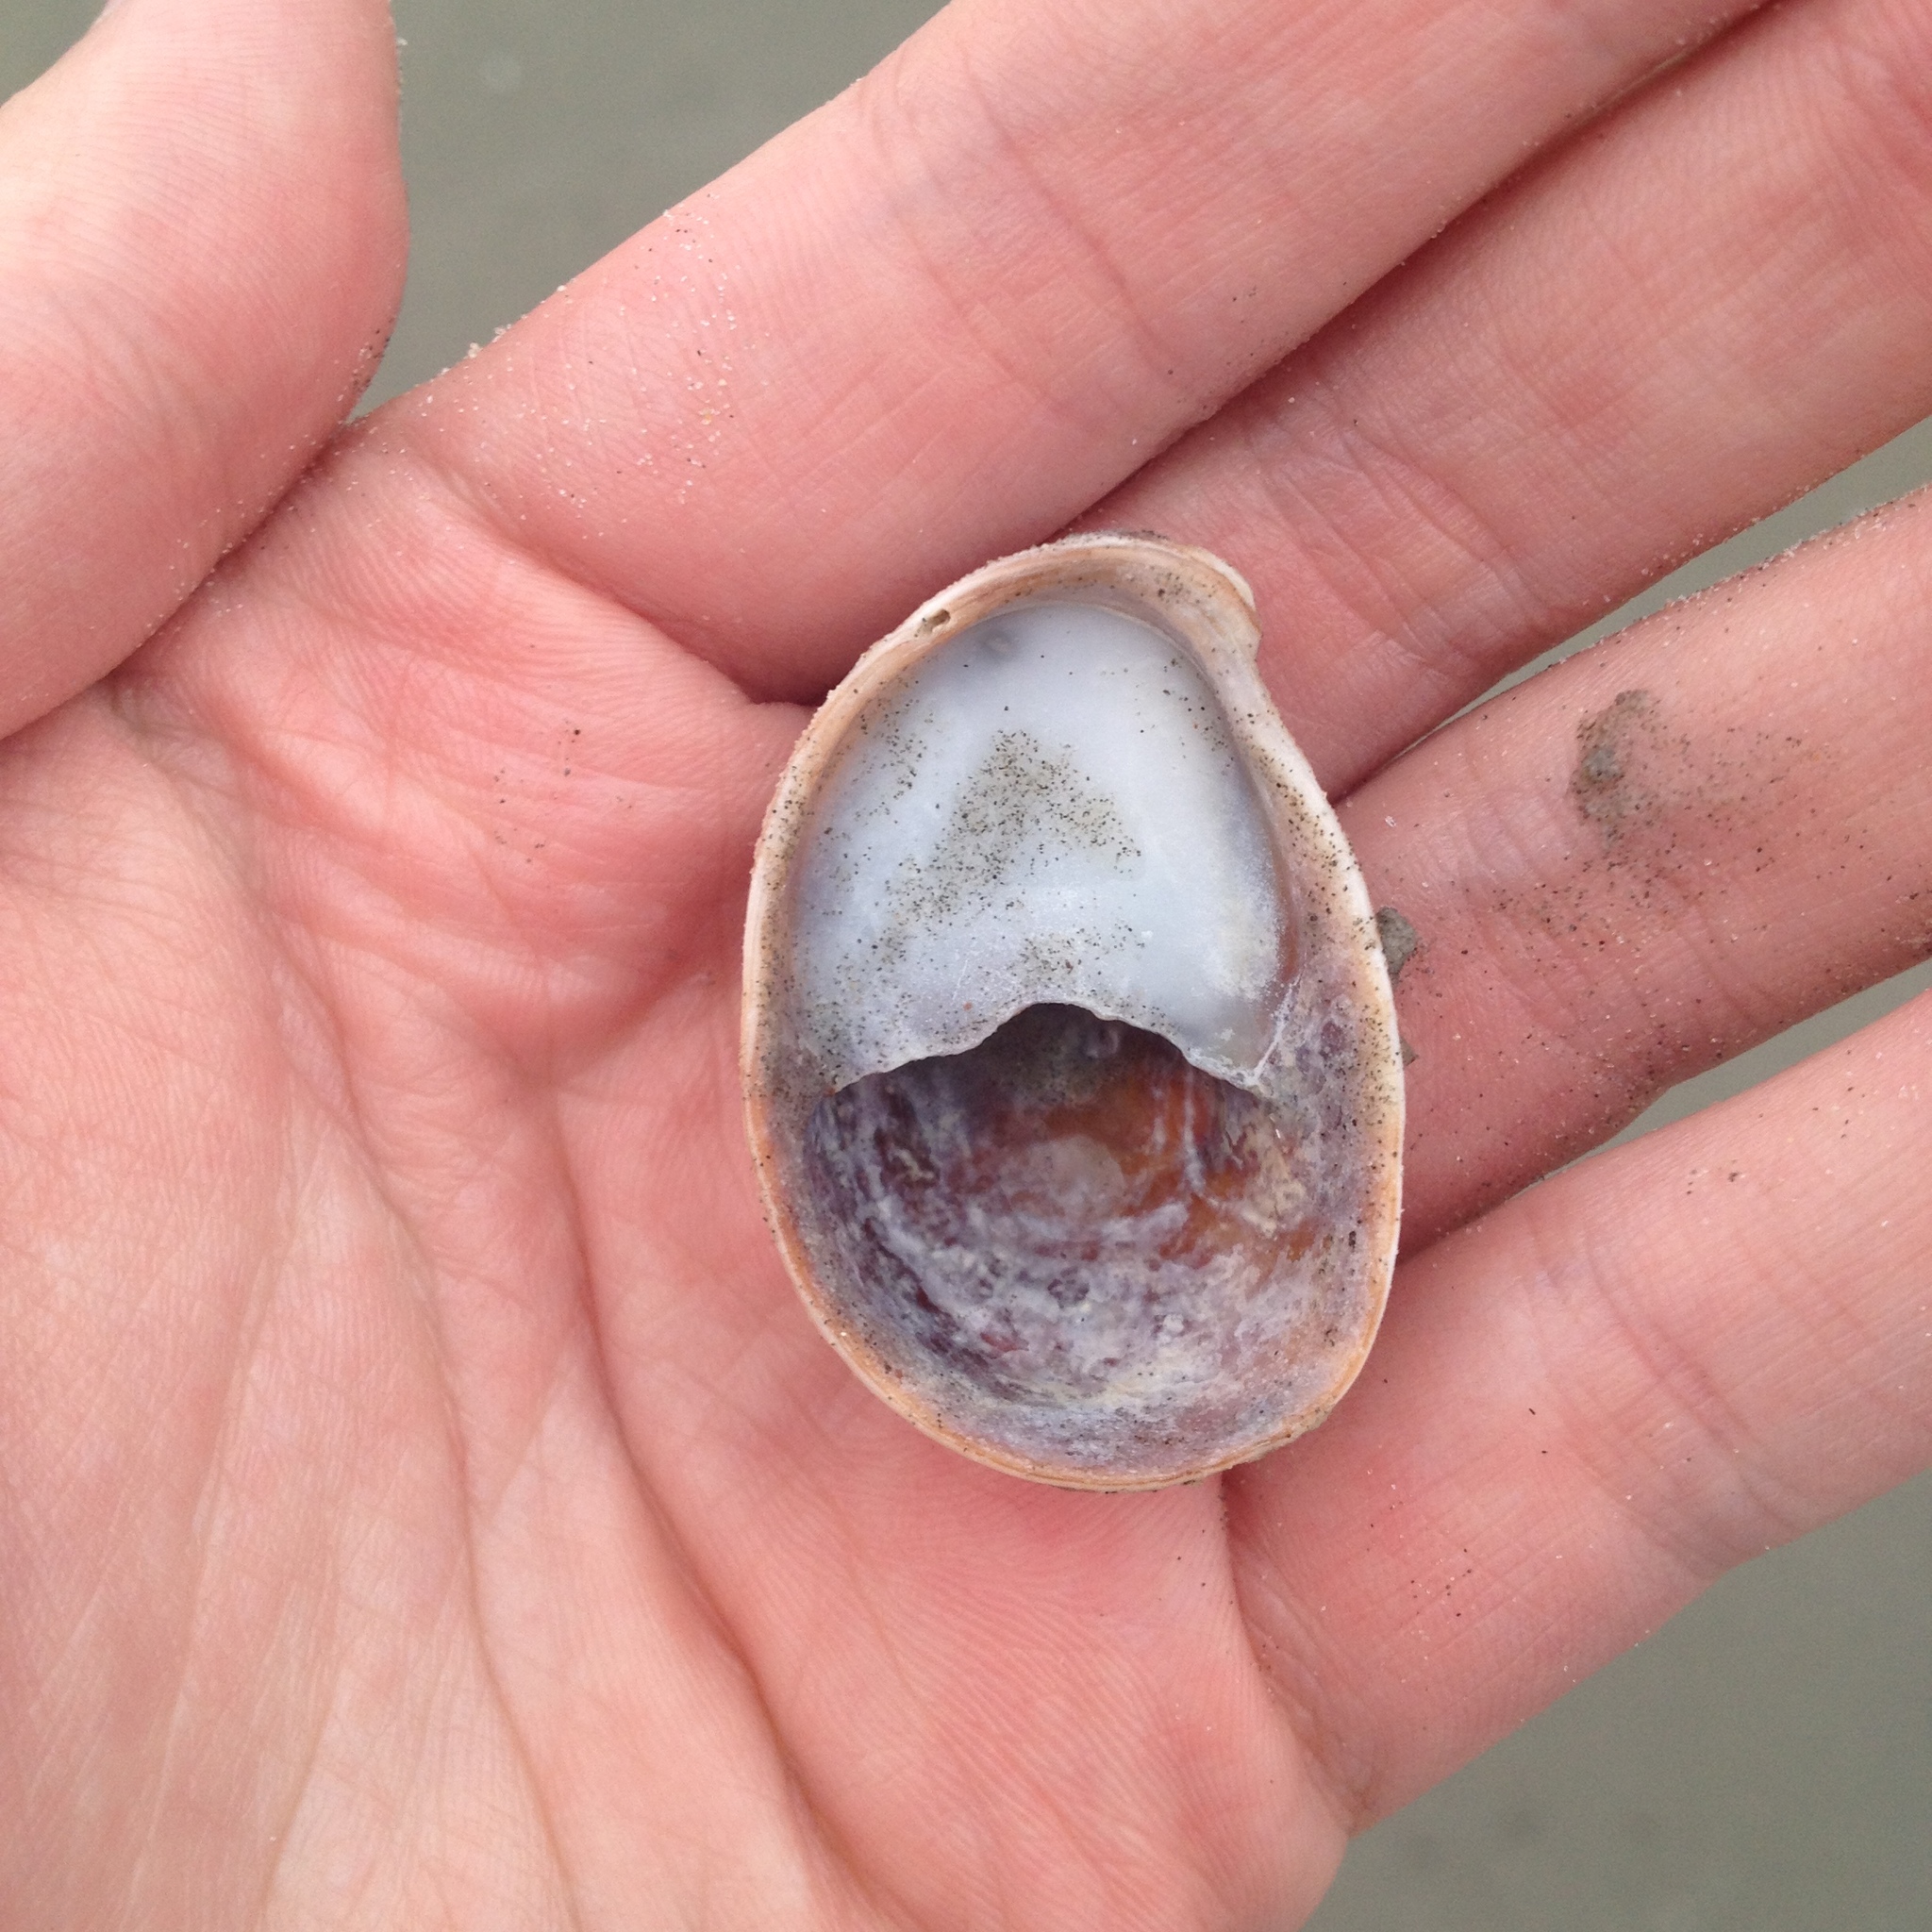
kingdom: Animalia
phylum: Mollusca
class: Gastropoda
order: Littorinimorpha
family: Calyptraeidae
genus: Crepidula
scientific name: Crepidula fornicata
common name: Slipper limpet
